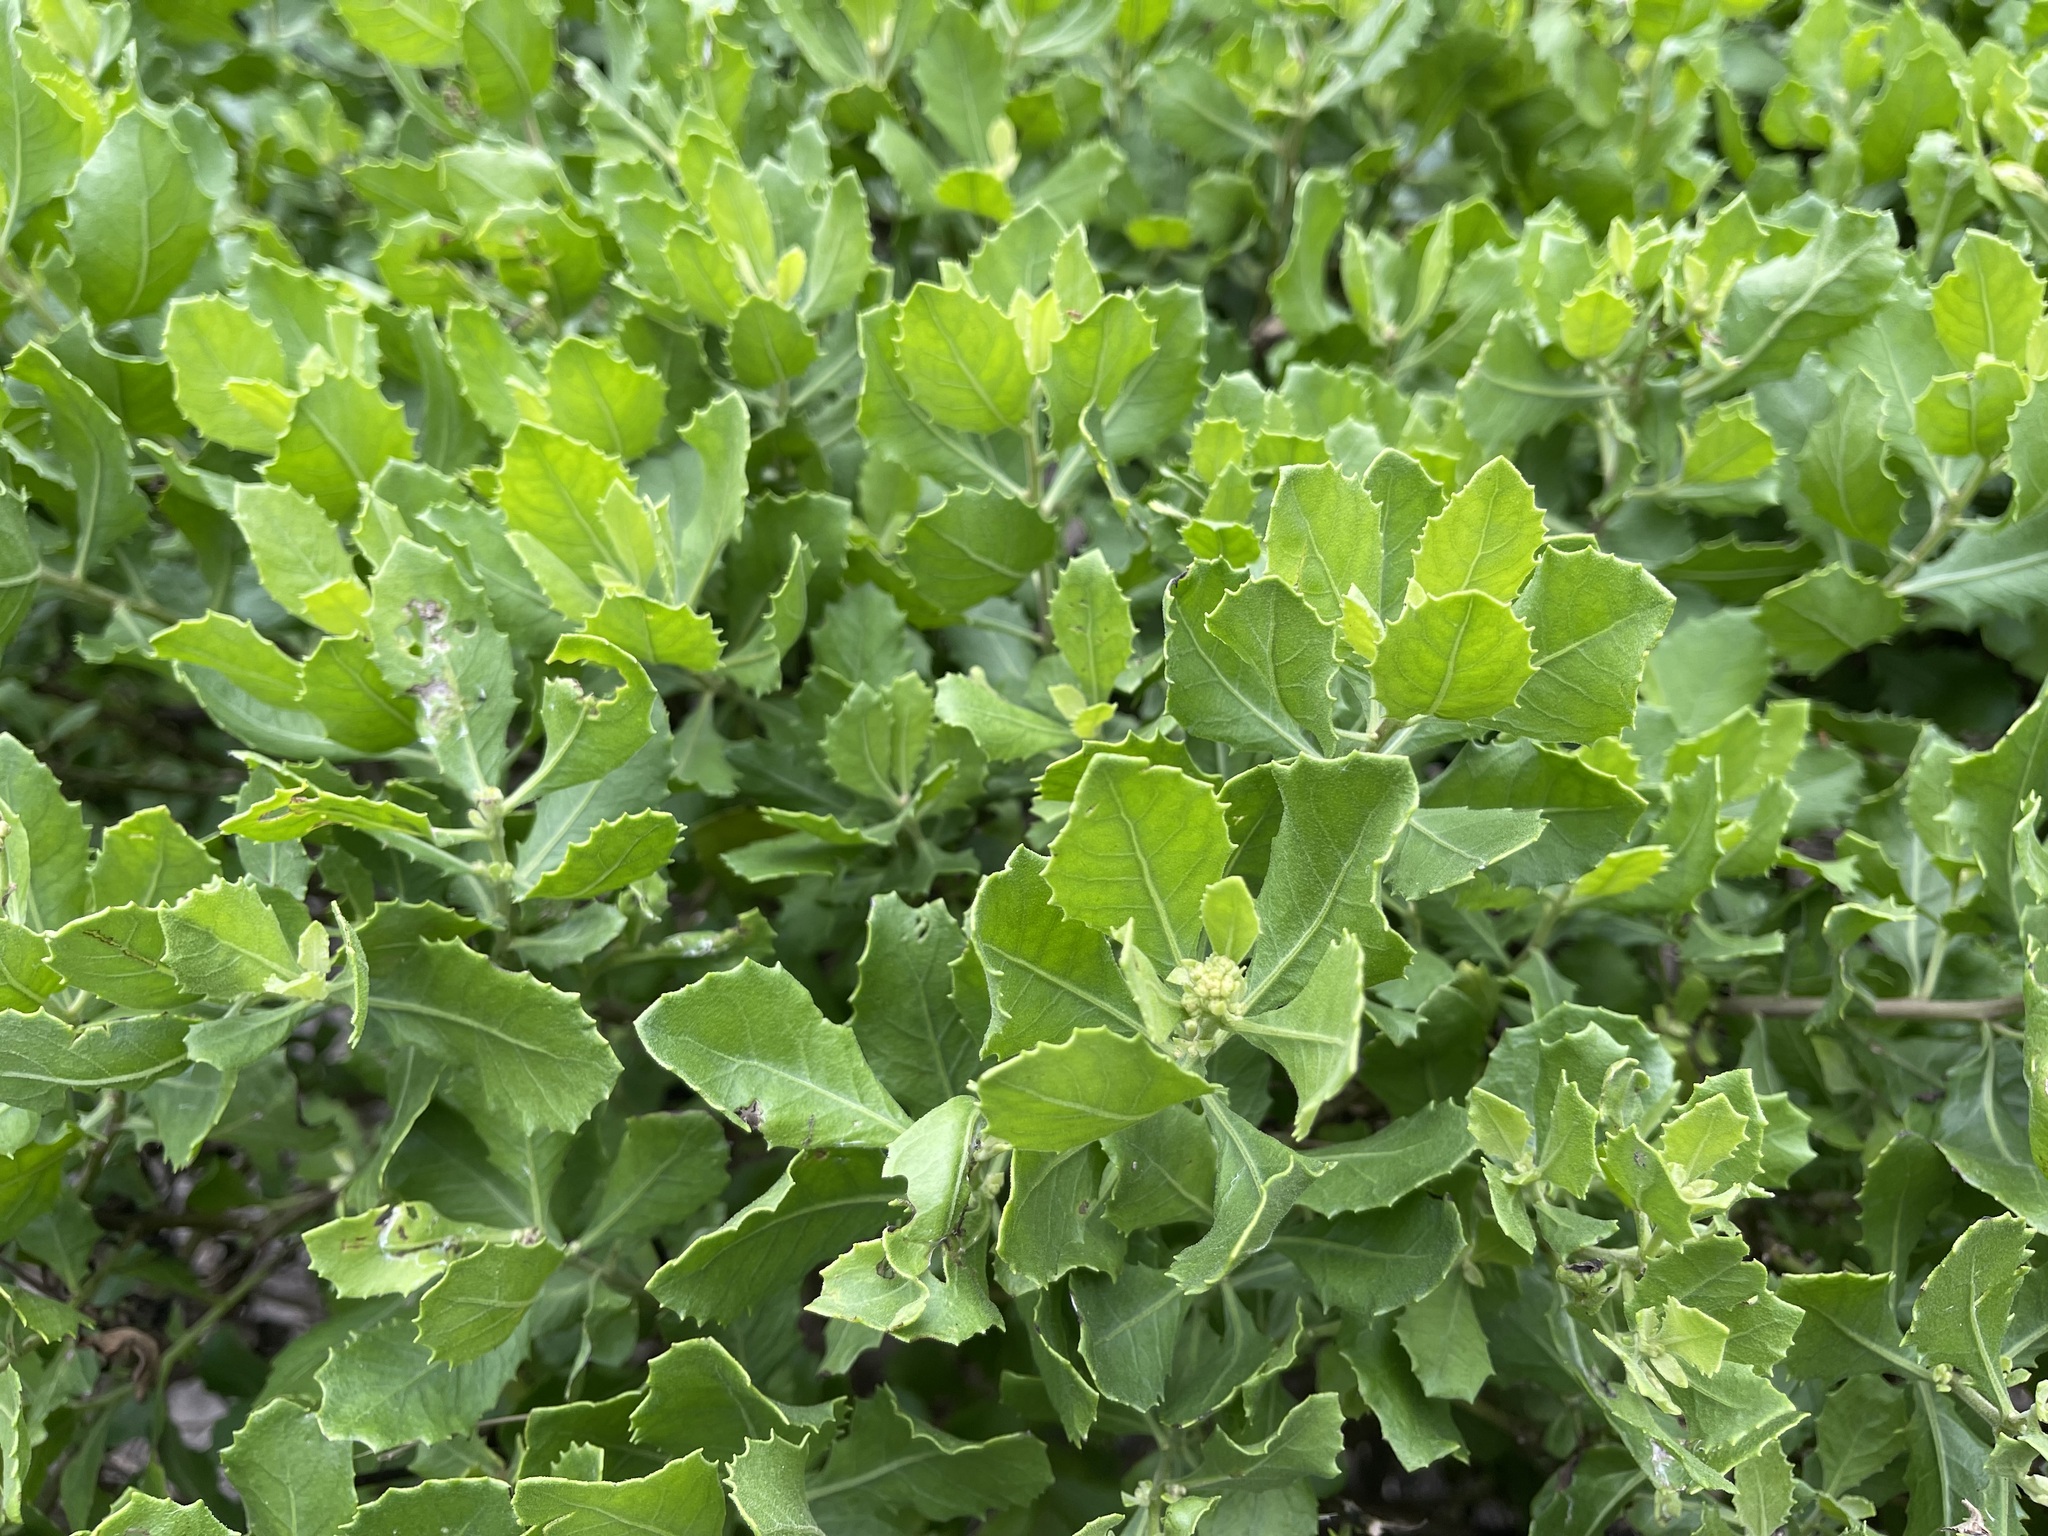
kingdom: Plantae
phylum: Tracheophyta
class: Magnoliopsida
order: Asterales
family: Asteraceae
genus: Pluchea
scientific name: Pluchea indica
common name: Indian fleabane
